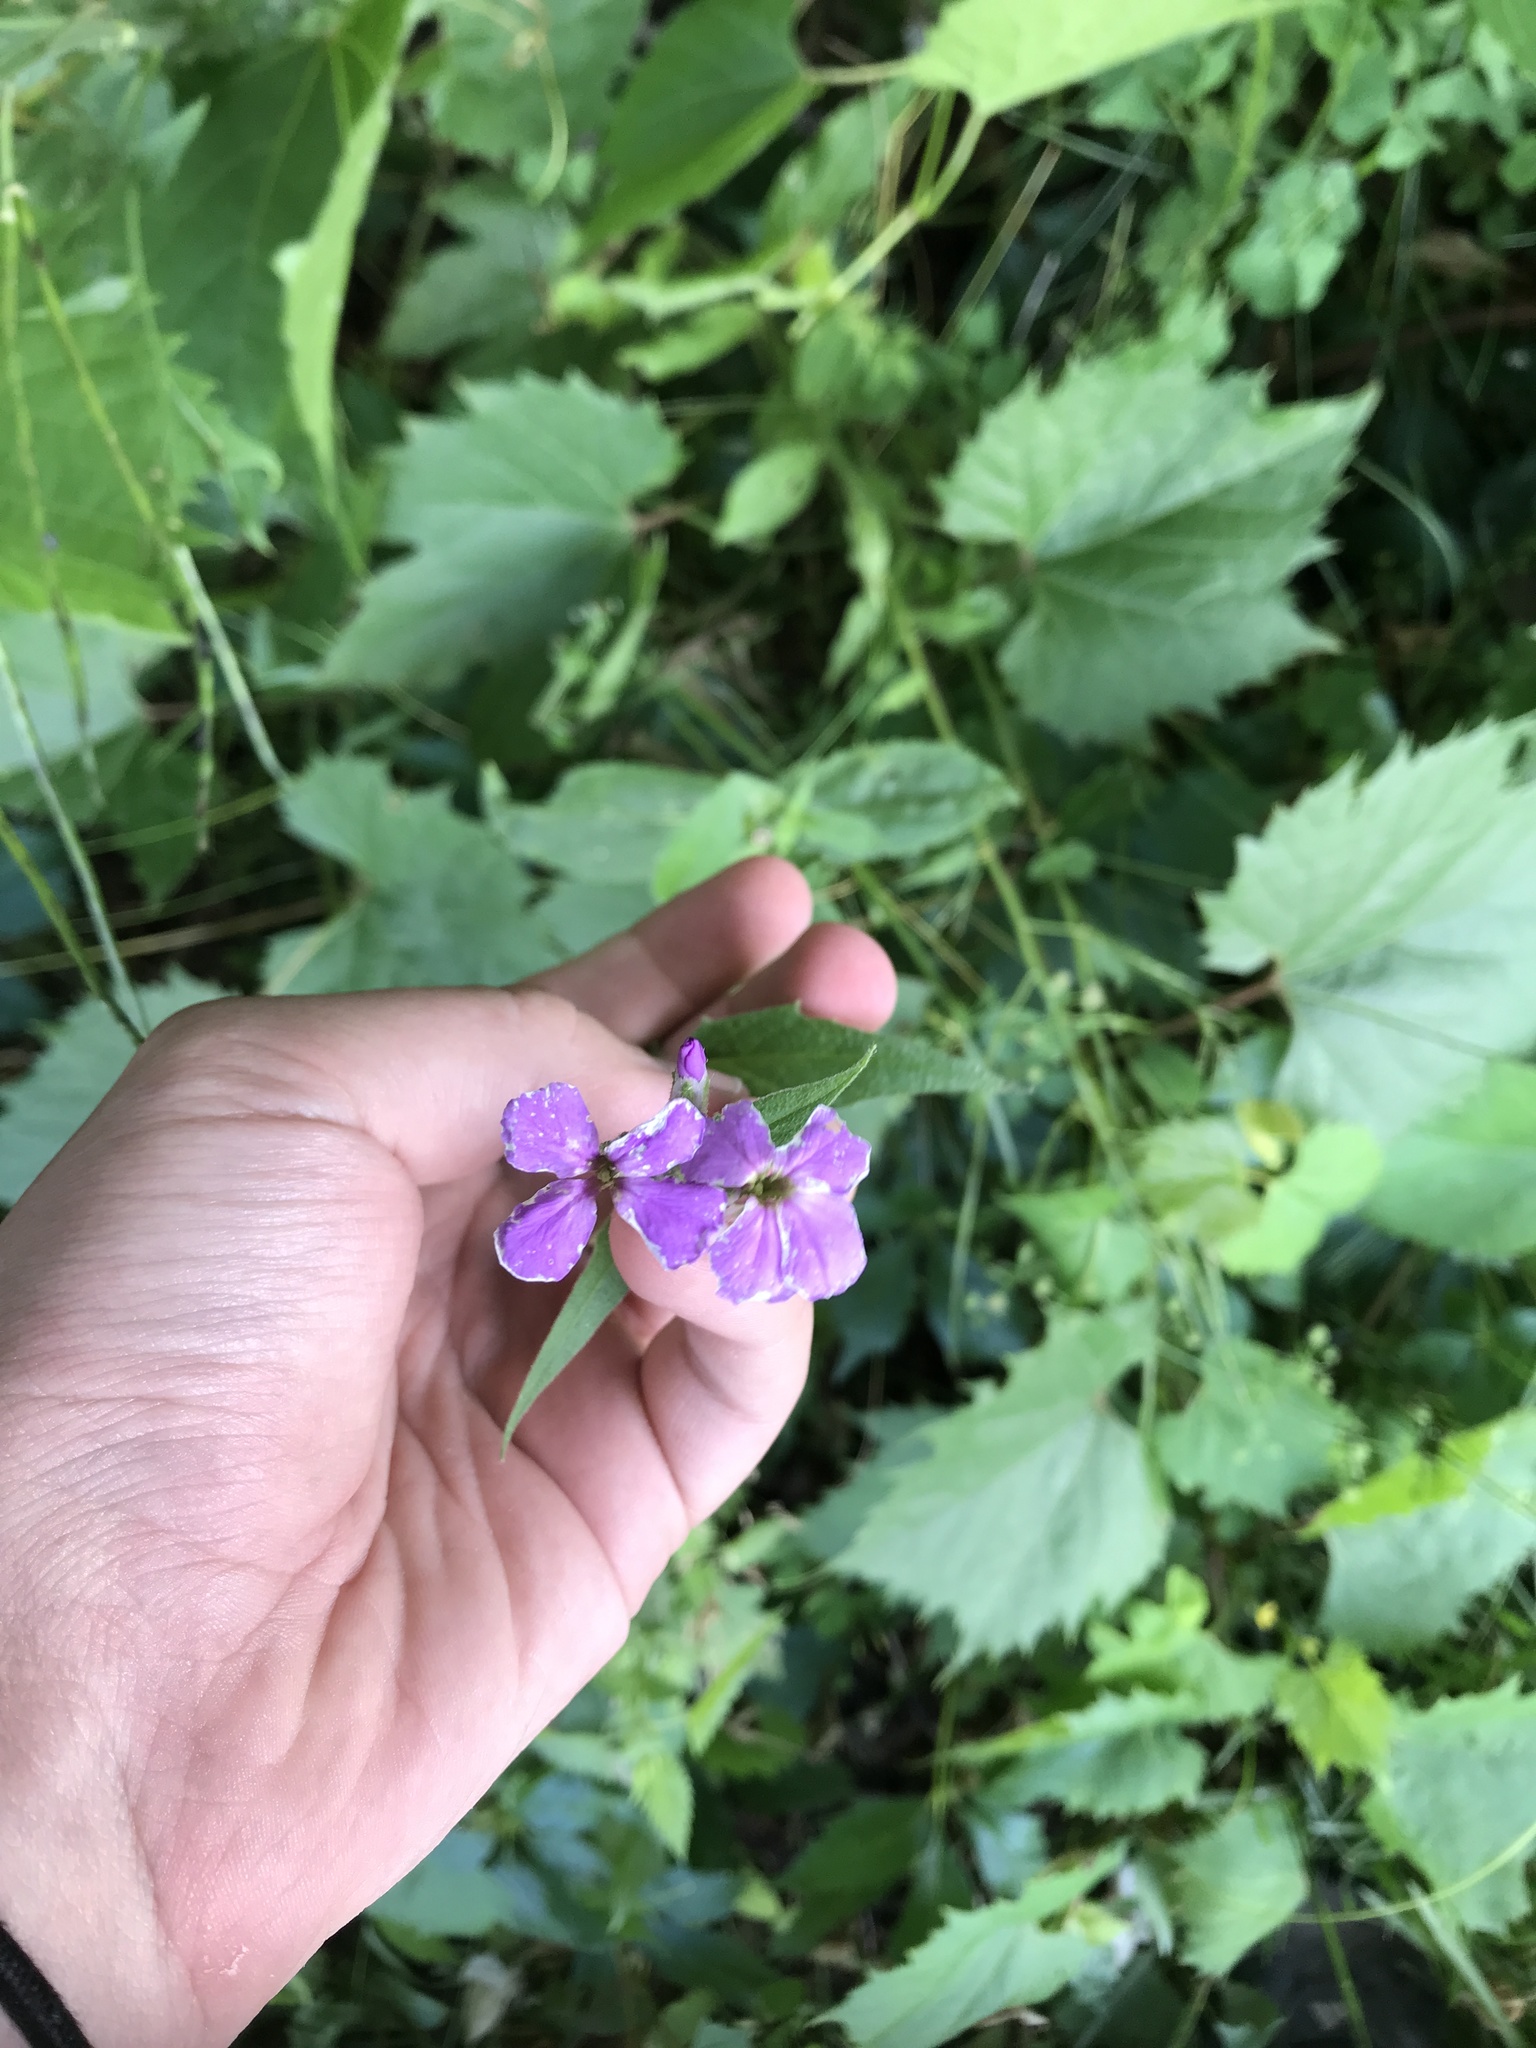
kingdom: Plantae
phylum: Tracheophyta
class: Magnoliopsida
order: Brassicales
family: Brassicaceae
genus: Hesperis
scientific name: Hesperis matronalis
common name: Dame's-violet
